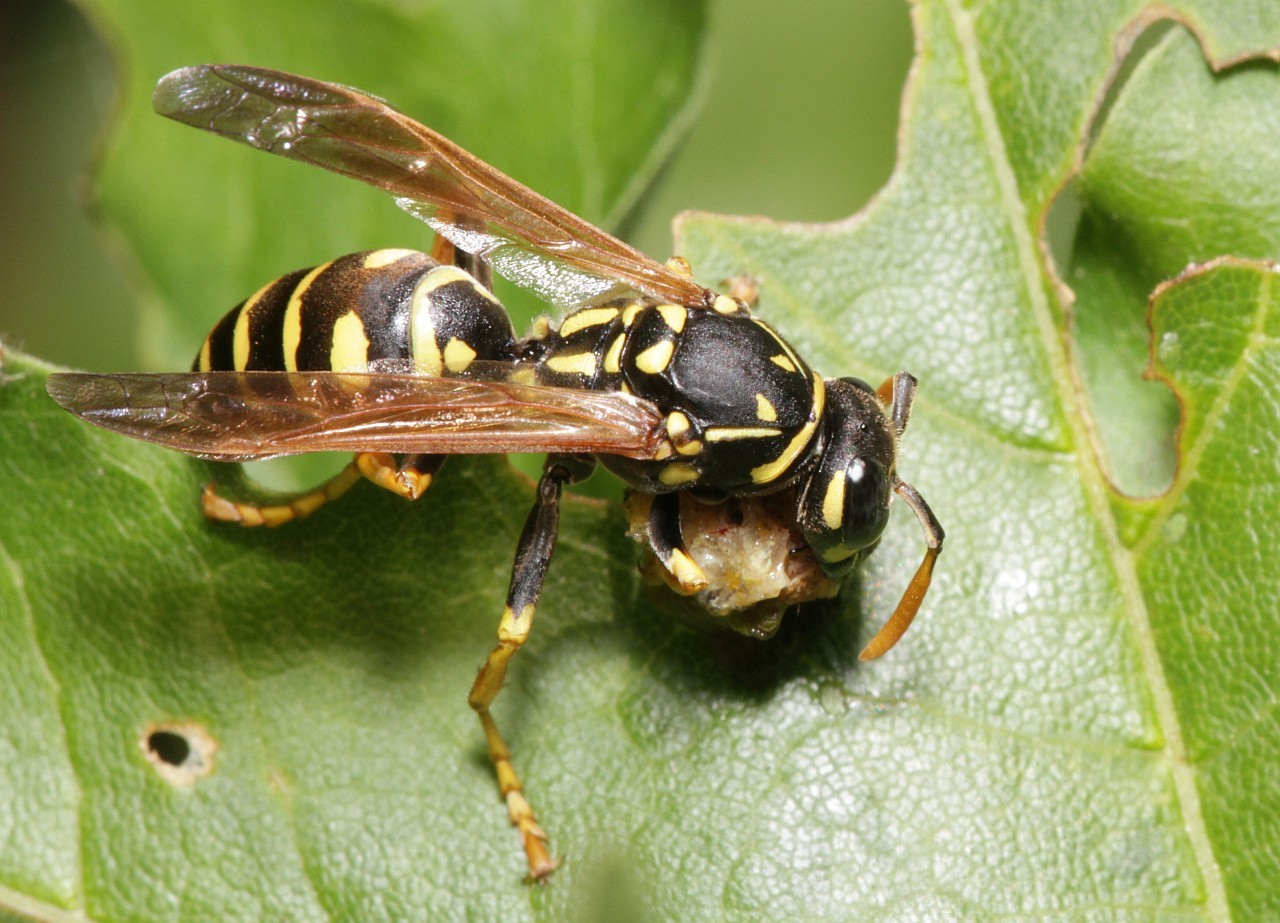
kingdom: Animalia
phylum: Arthropoda
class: Insecta
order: Hymenoptera
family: Eumenidae
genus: Polistes
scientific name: Polistes dominula
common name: Paper wasp
